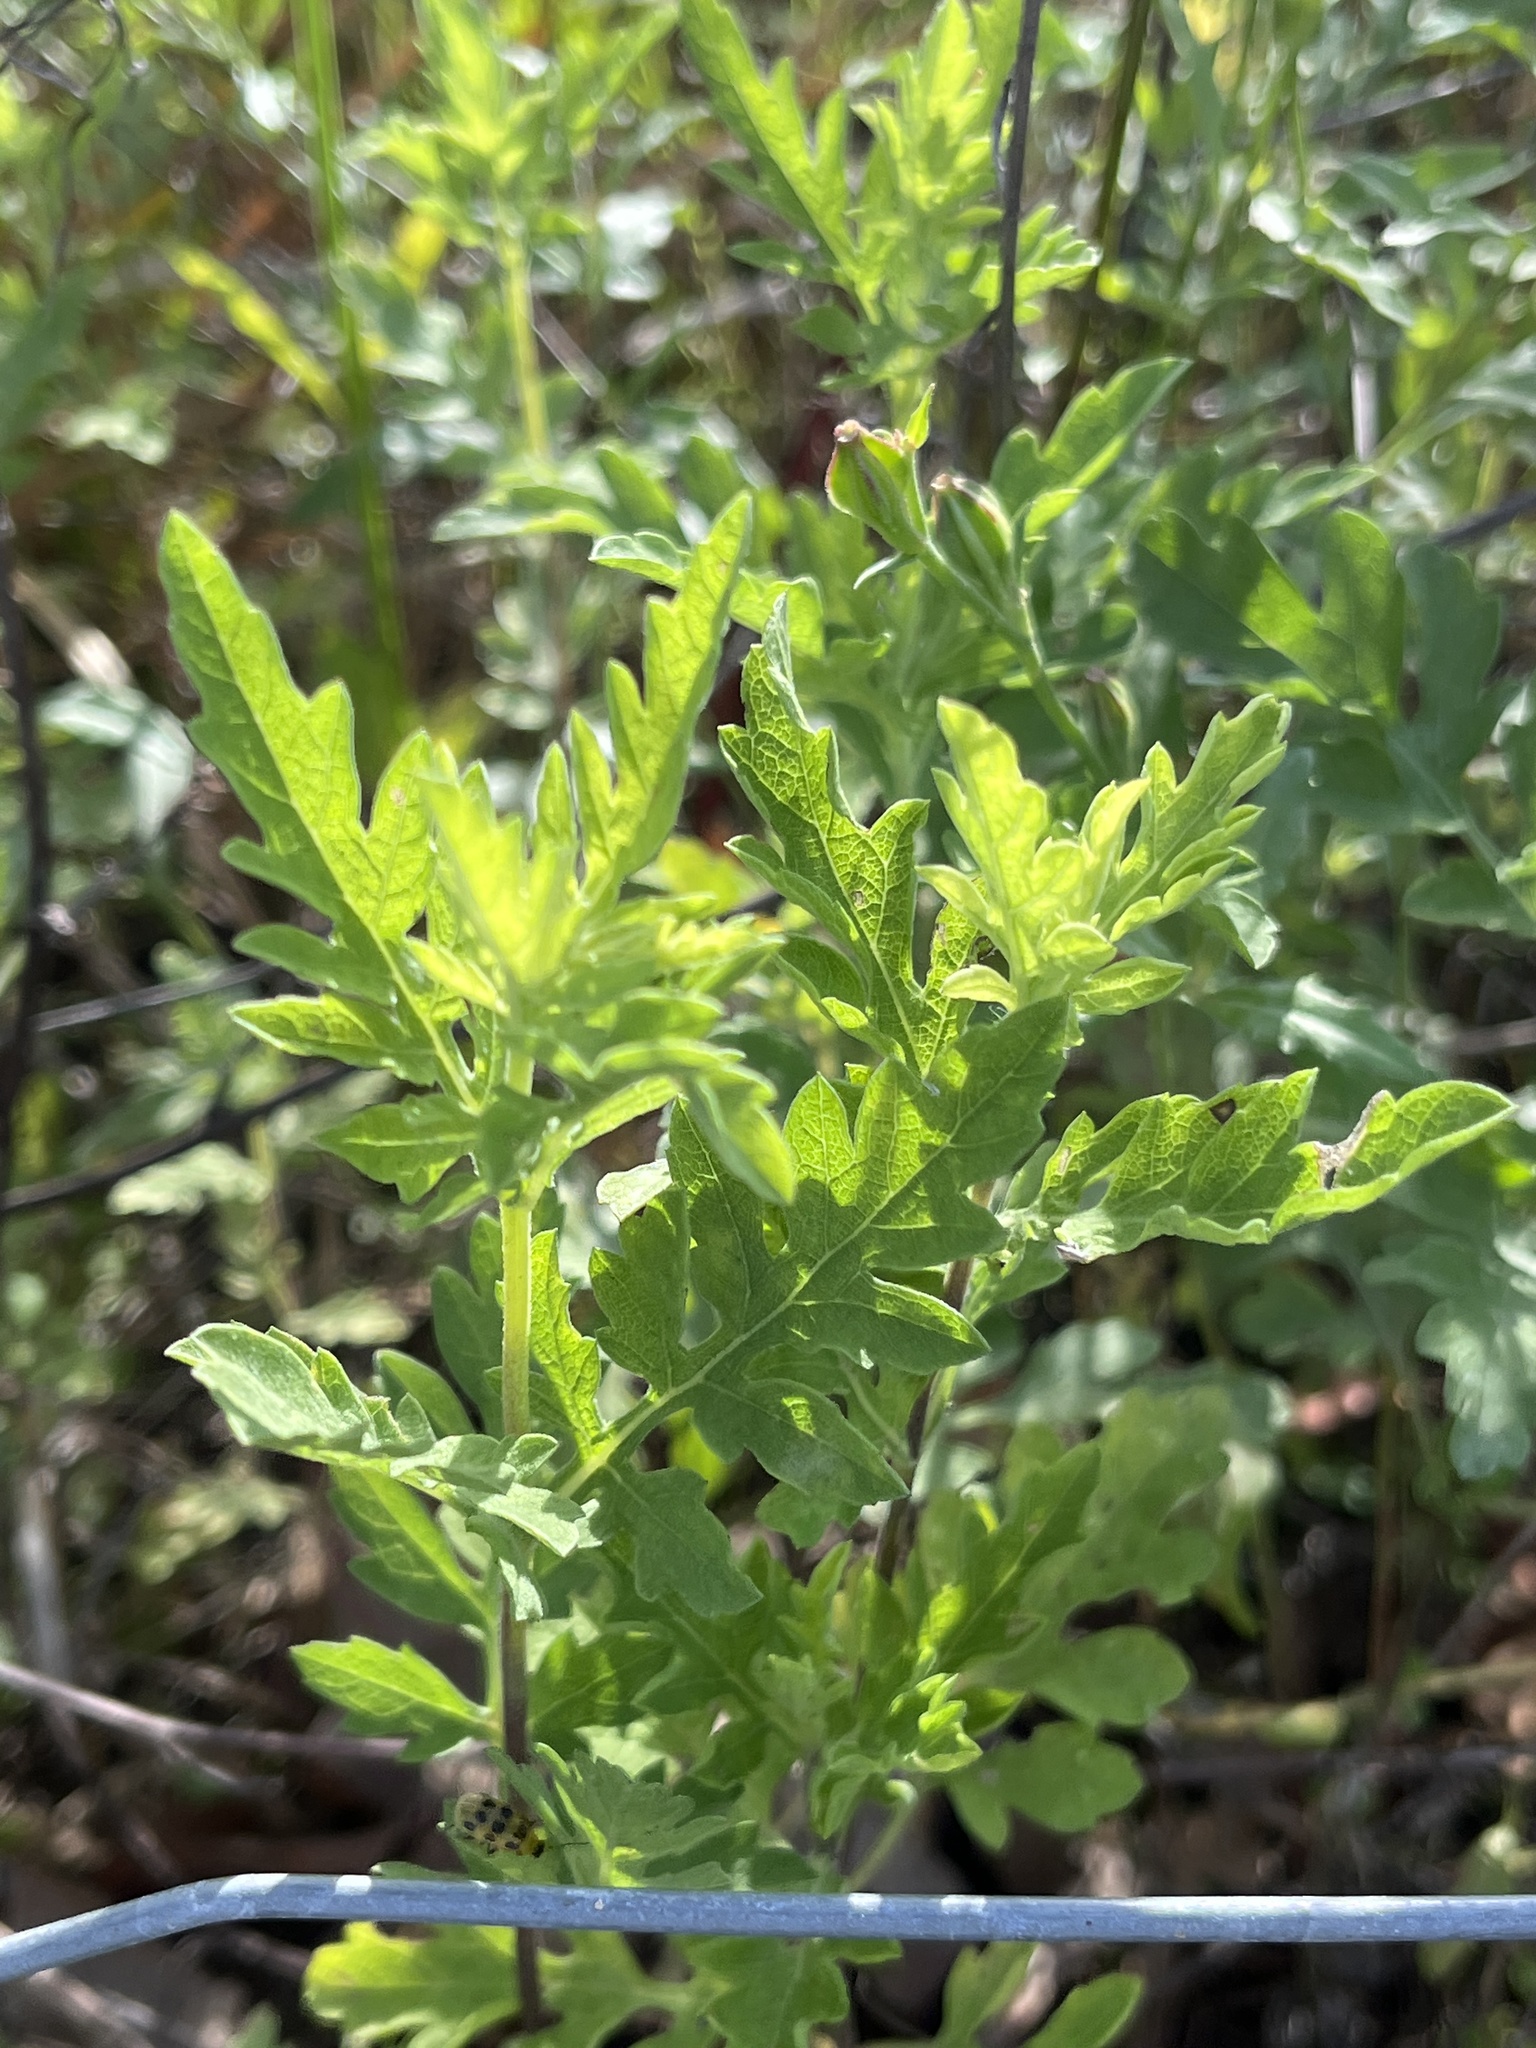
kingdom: Plantae
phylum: Tracheophyta
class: Magnoliopsida
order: Asterales
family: Asteraceae
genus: Ambrosia
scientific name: Ambrosia psilostachya
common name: Perennial ragweed
